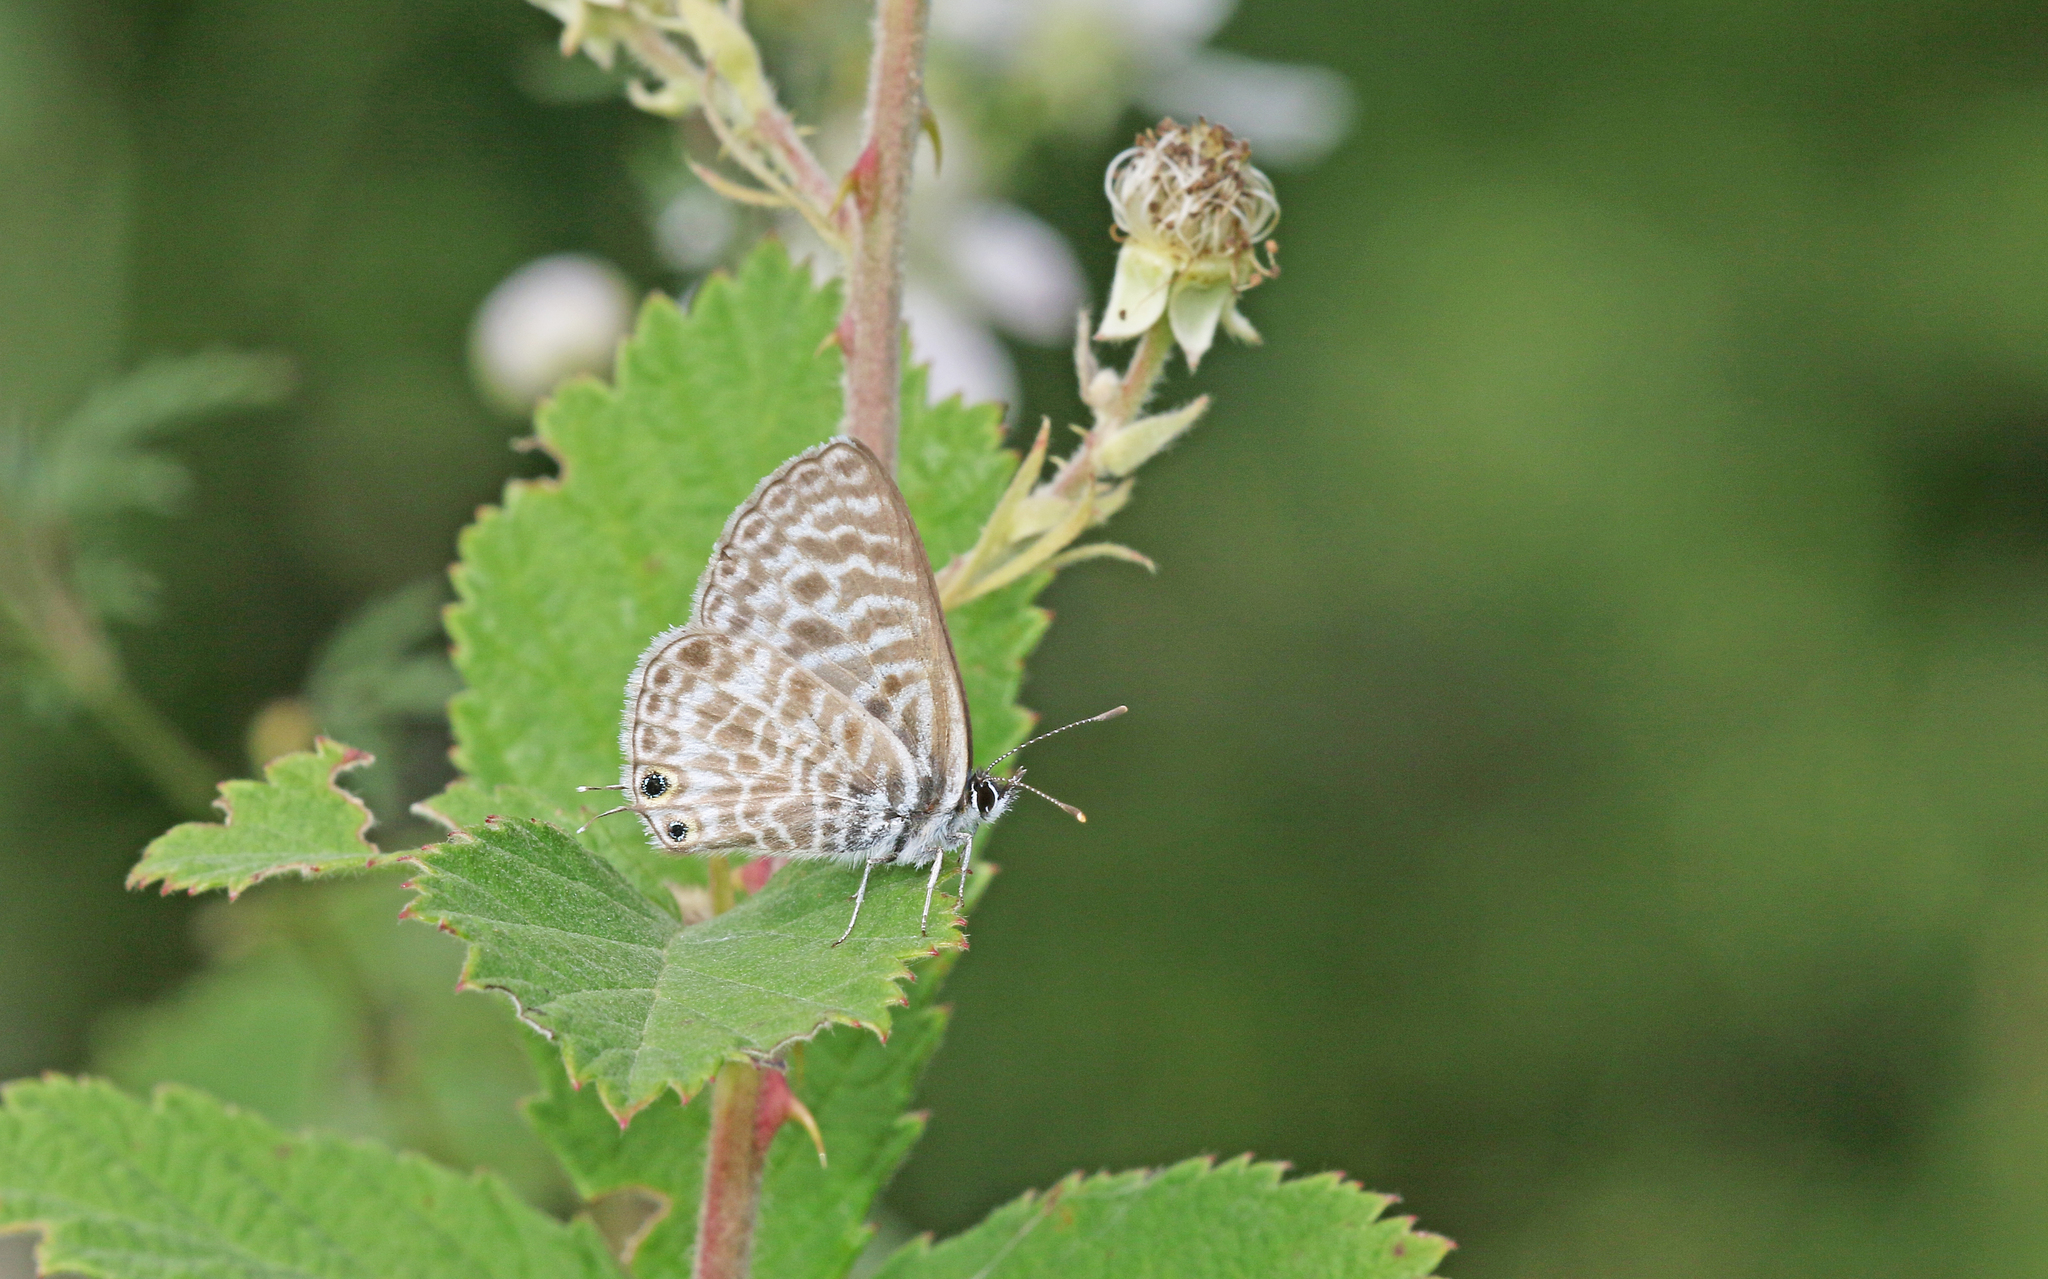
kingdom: Animalia
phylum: Arthropoda
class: Insecta
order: Lepidoptera
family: Lycaenidae
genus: Leptotes
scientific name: Leptotes pirithous
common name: Lang's short-tailed blue
